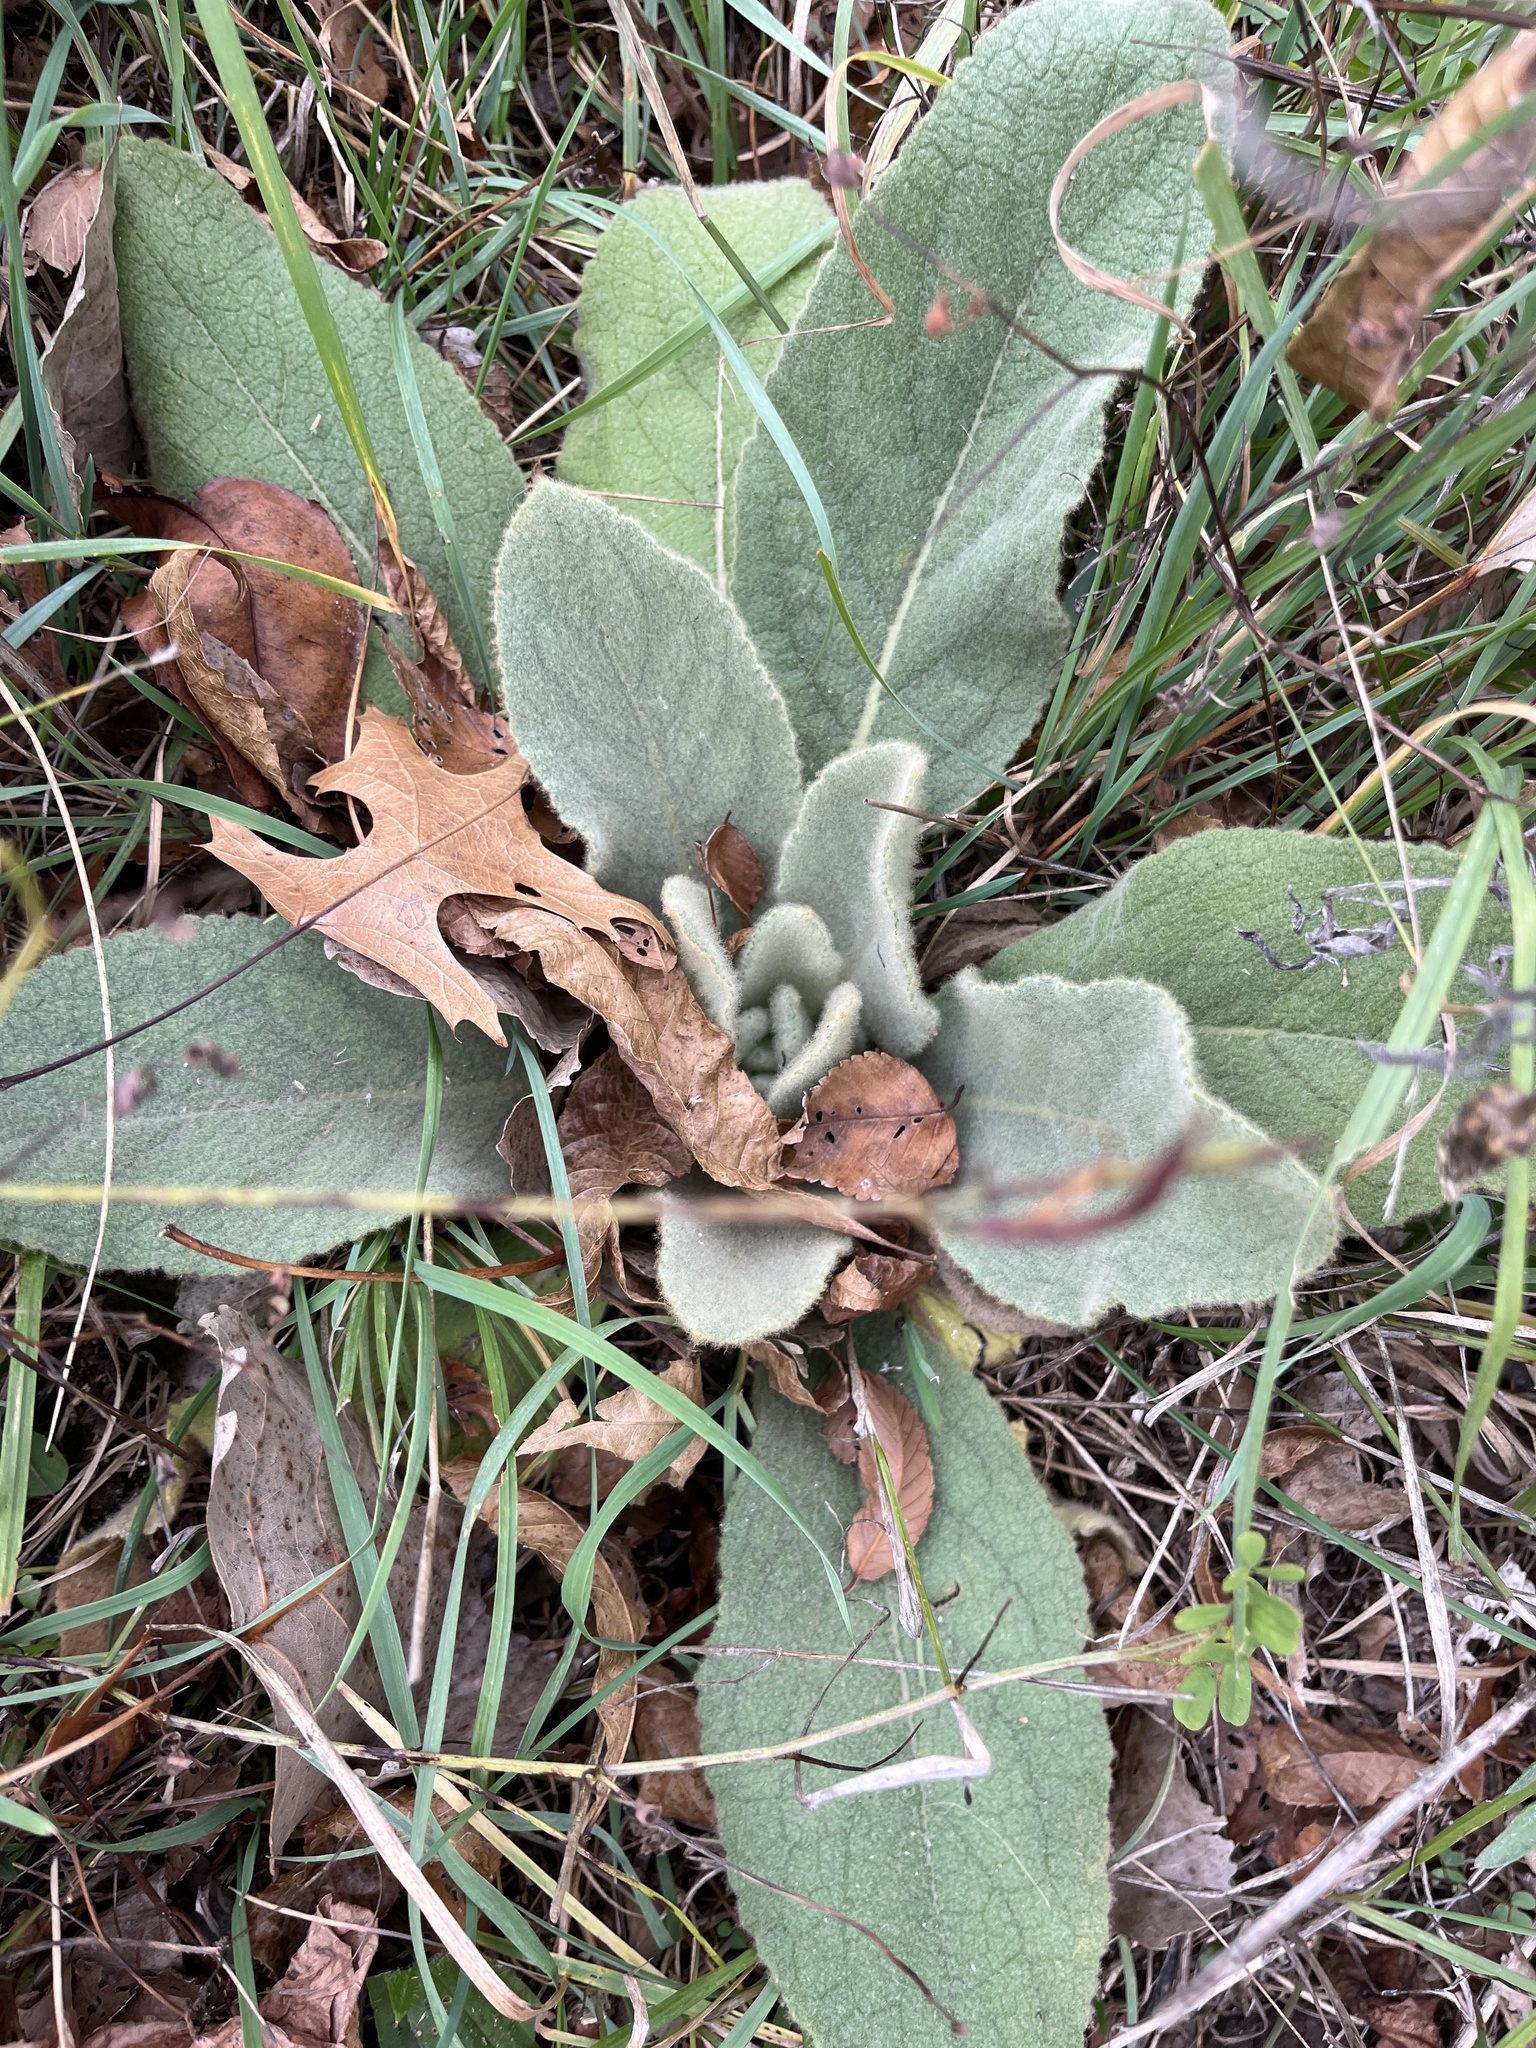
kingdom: Plantae
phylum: Tracheophyta
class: Magnoliopsida
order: Lamiales
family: Scrophulariaceae
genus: Verbascum
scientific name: Verbascum thapsus
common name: Common mullein
